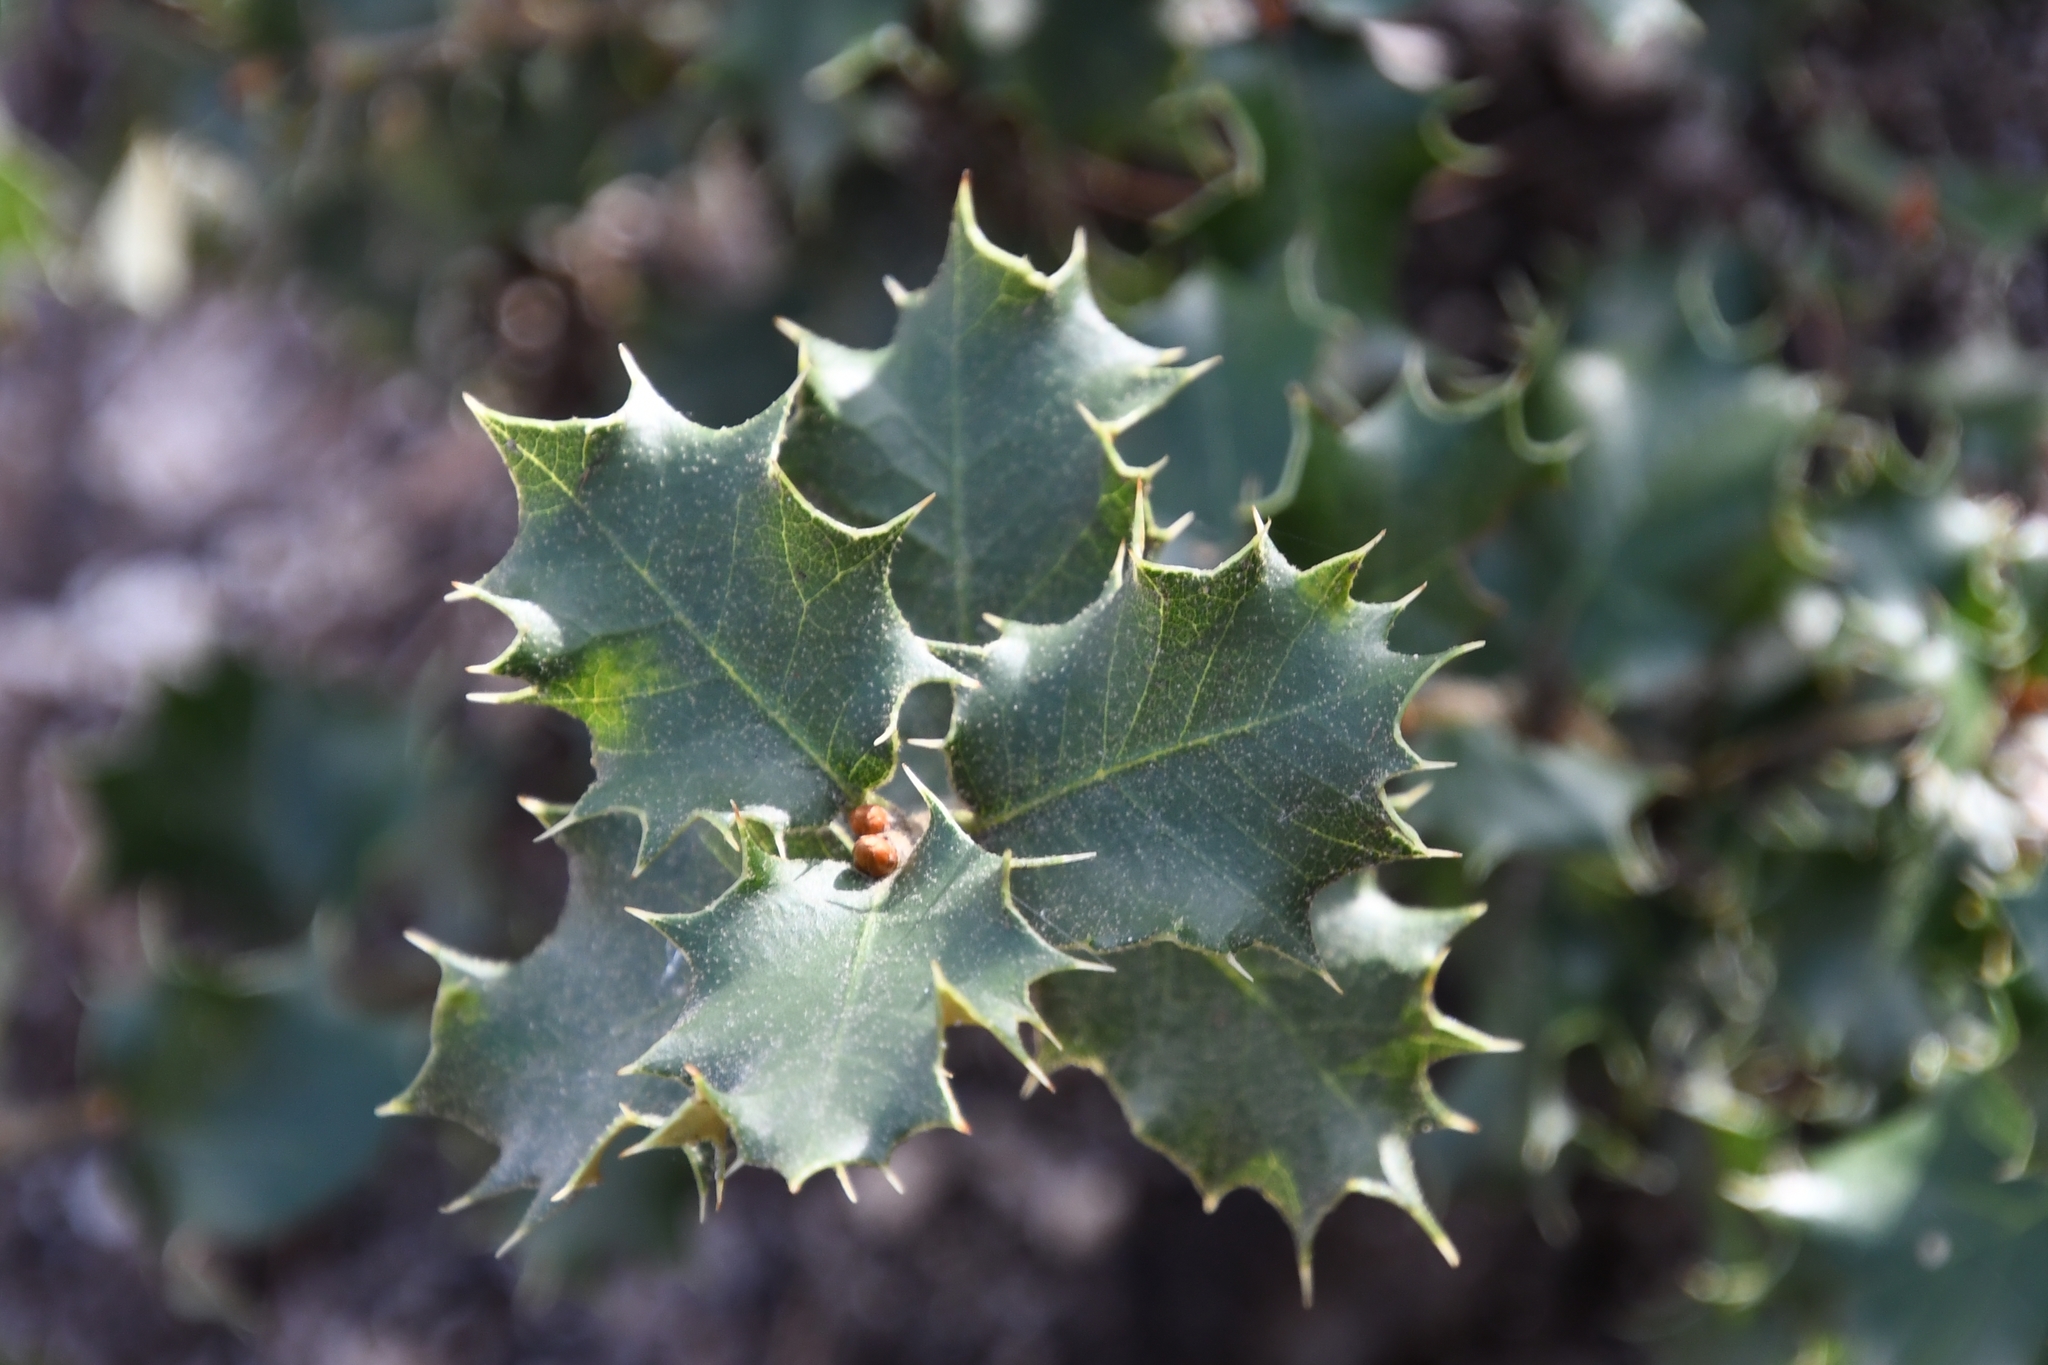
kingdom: Plantae
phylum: Tracheophyta
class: Magnoliopsida
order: Fagales
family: Fagaceae
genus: Quercus
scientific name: Quercus chrysolepis
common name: Canyon live oak
